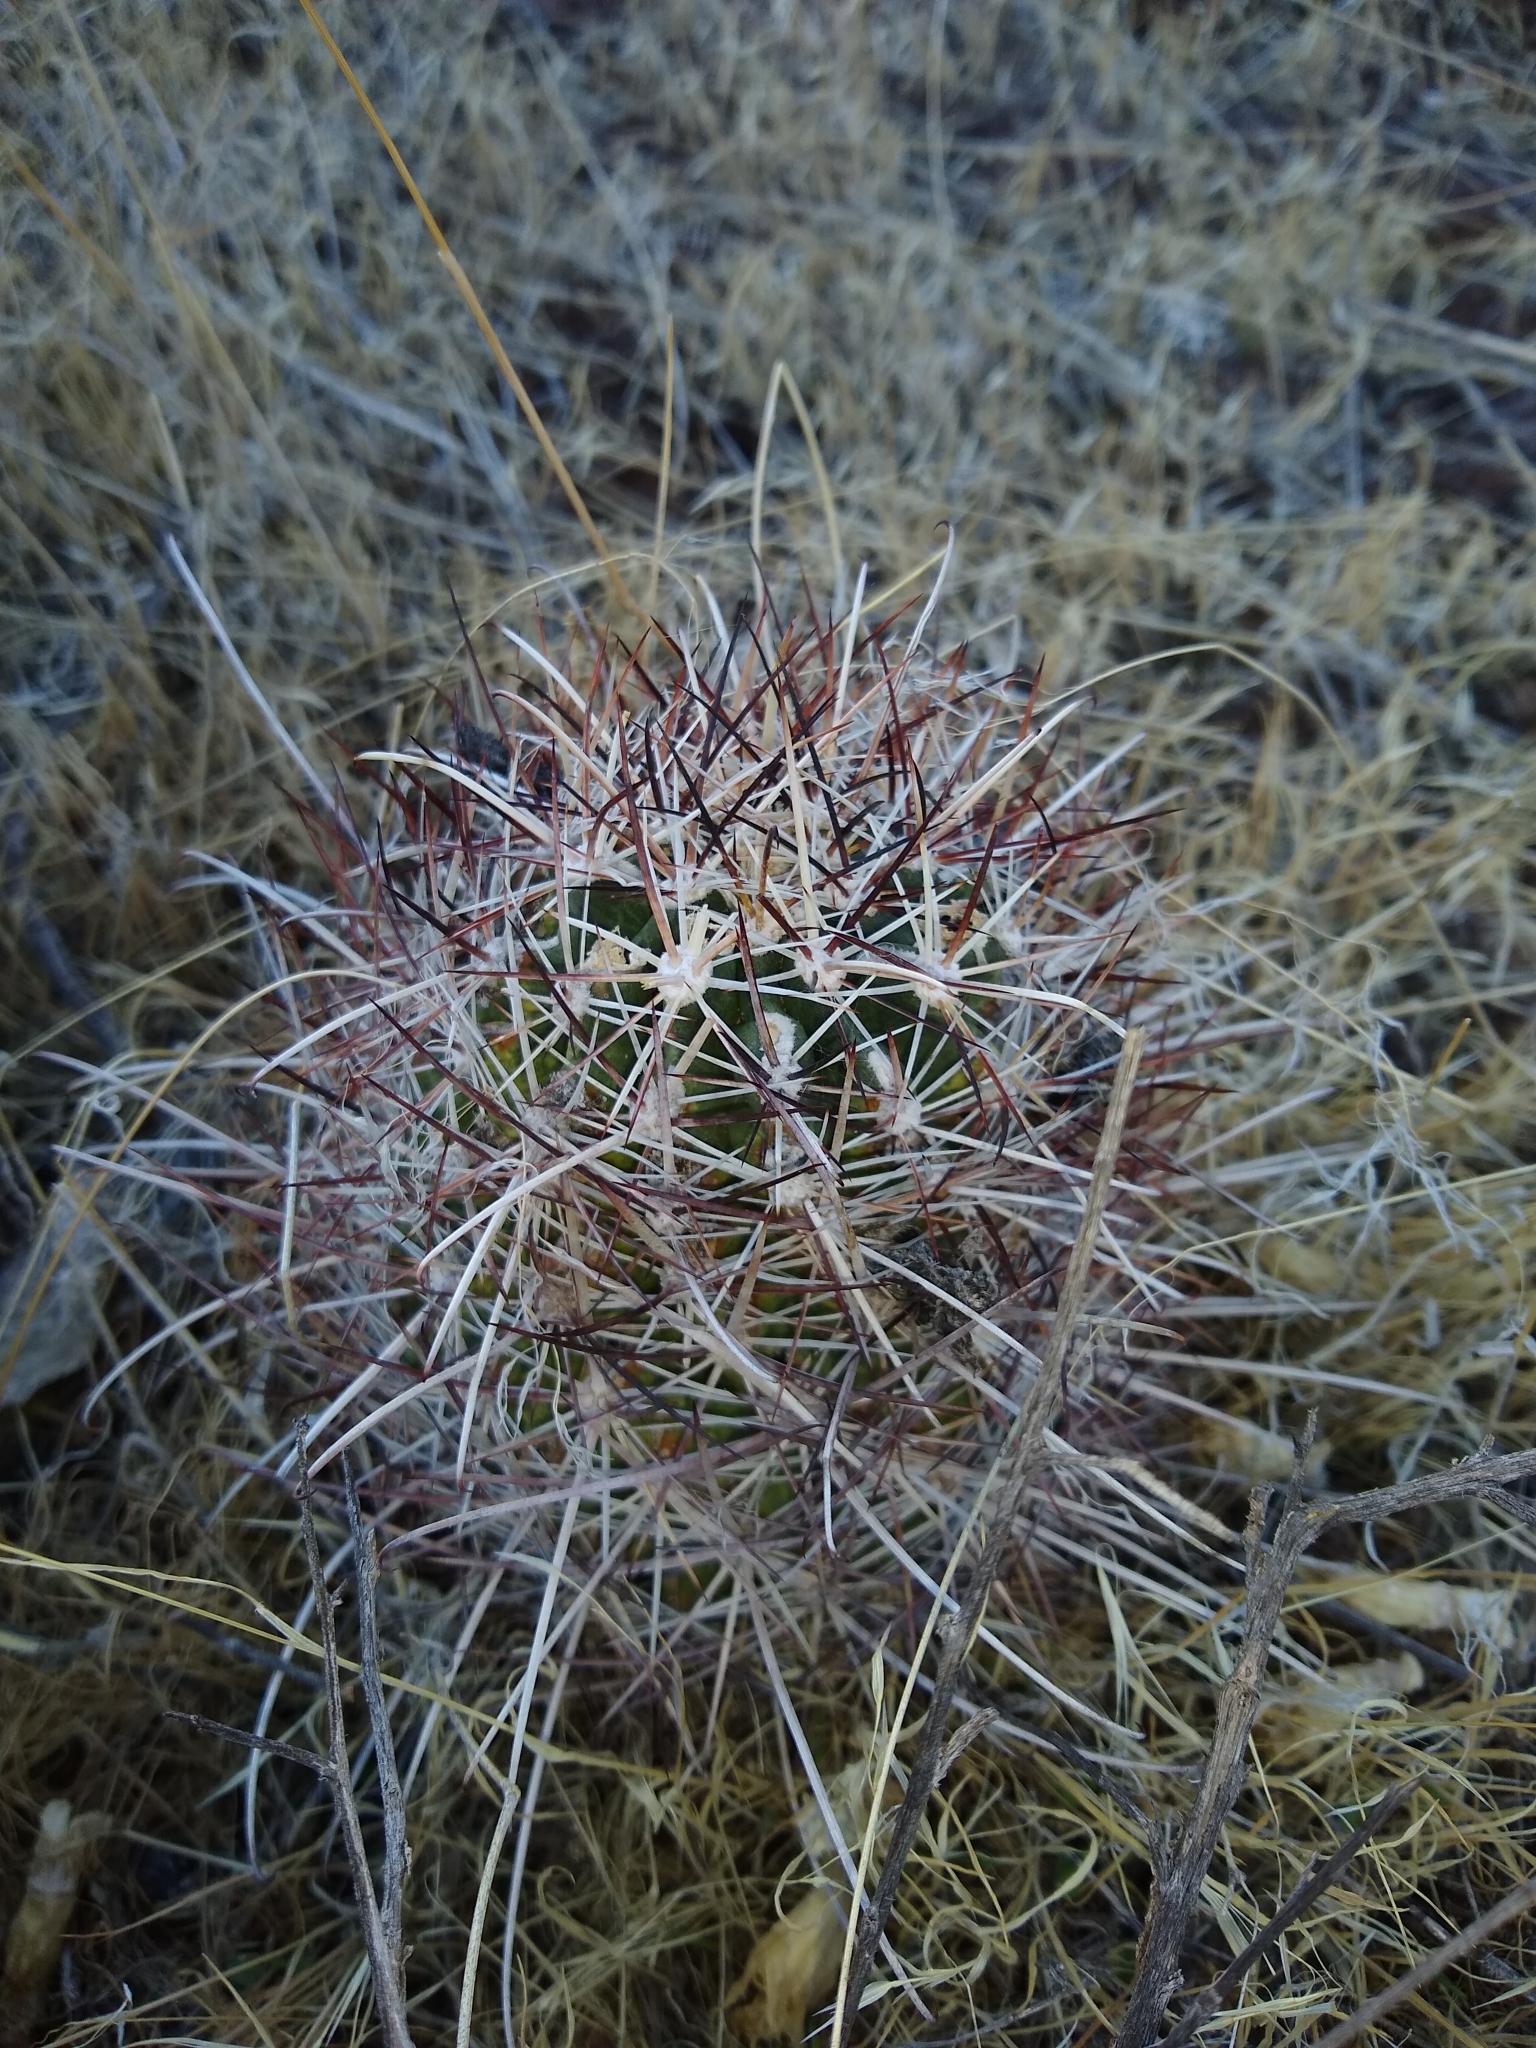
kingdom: Plantae
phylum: Tracheophyta
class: Magnoliopsida
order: Caryophyllales
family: Cactaceae
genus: Sclerocactus
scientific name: Sclerocactus parviflorus
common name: Small-flower fishhook cactus
